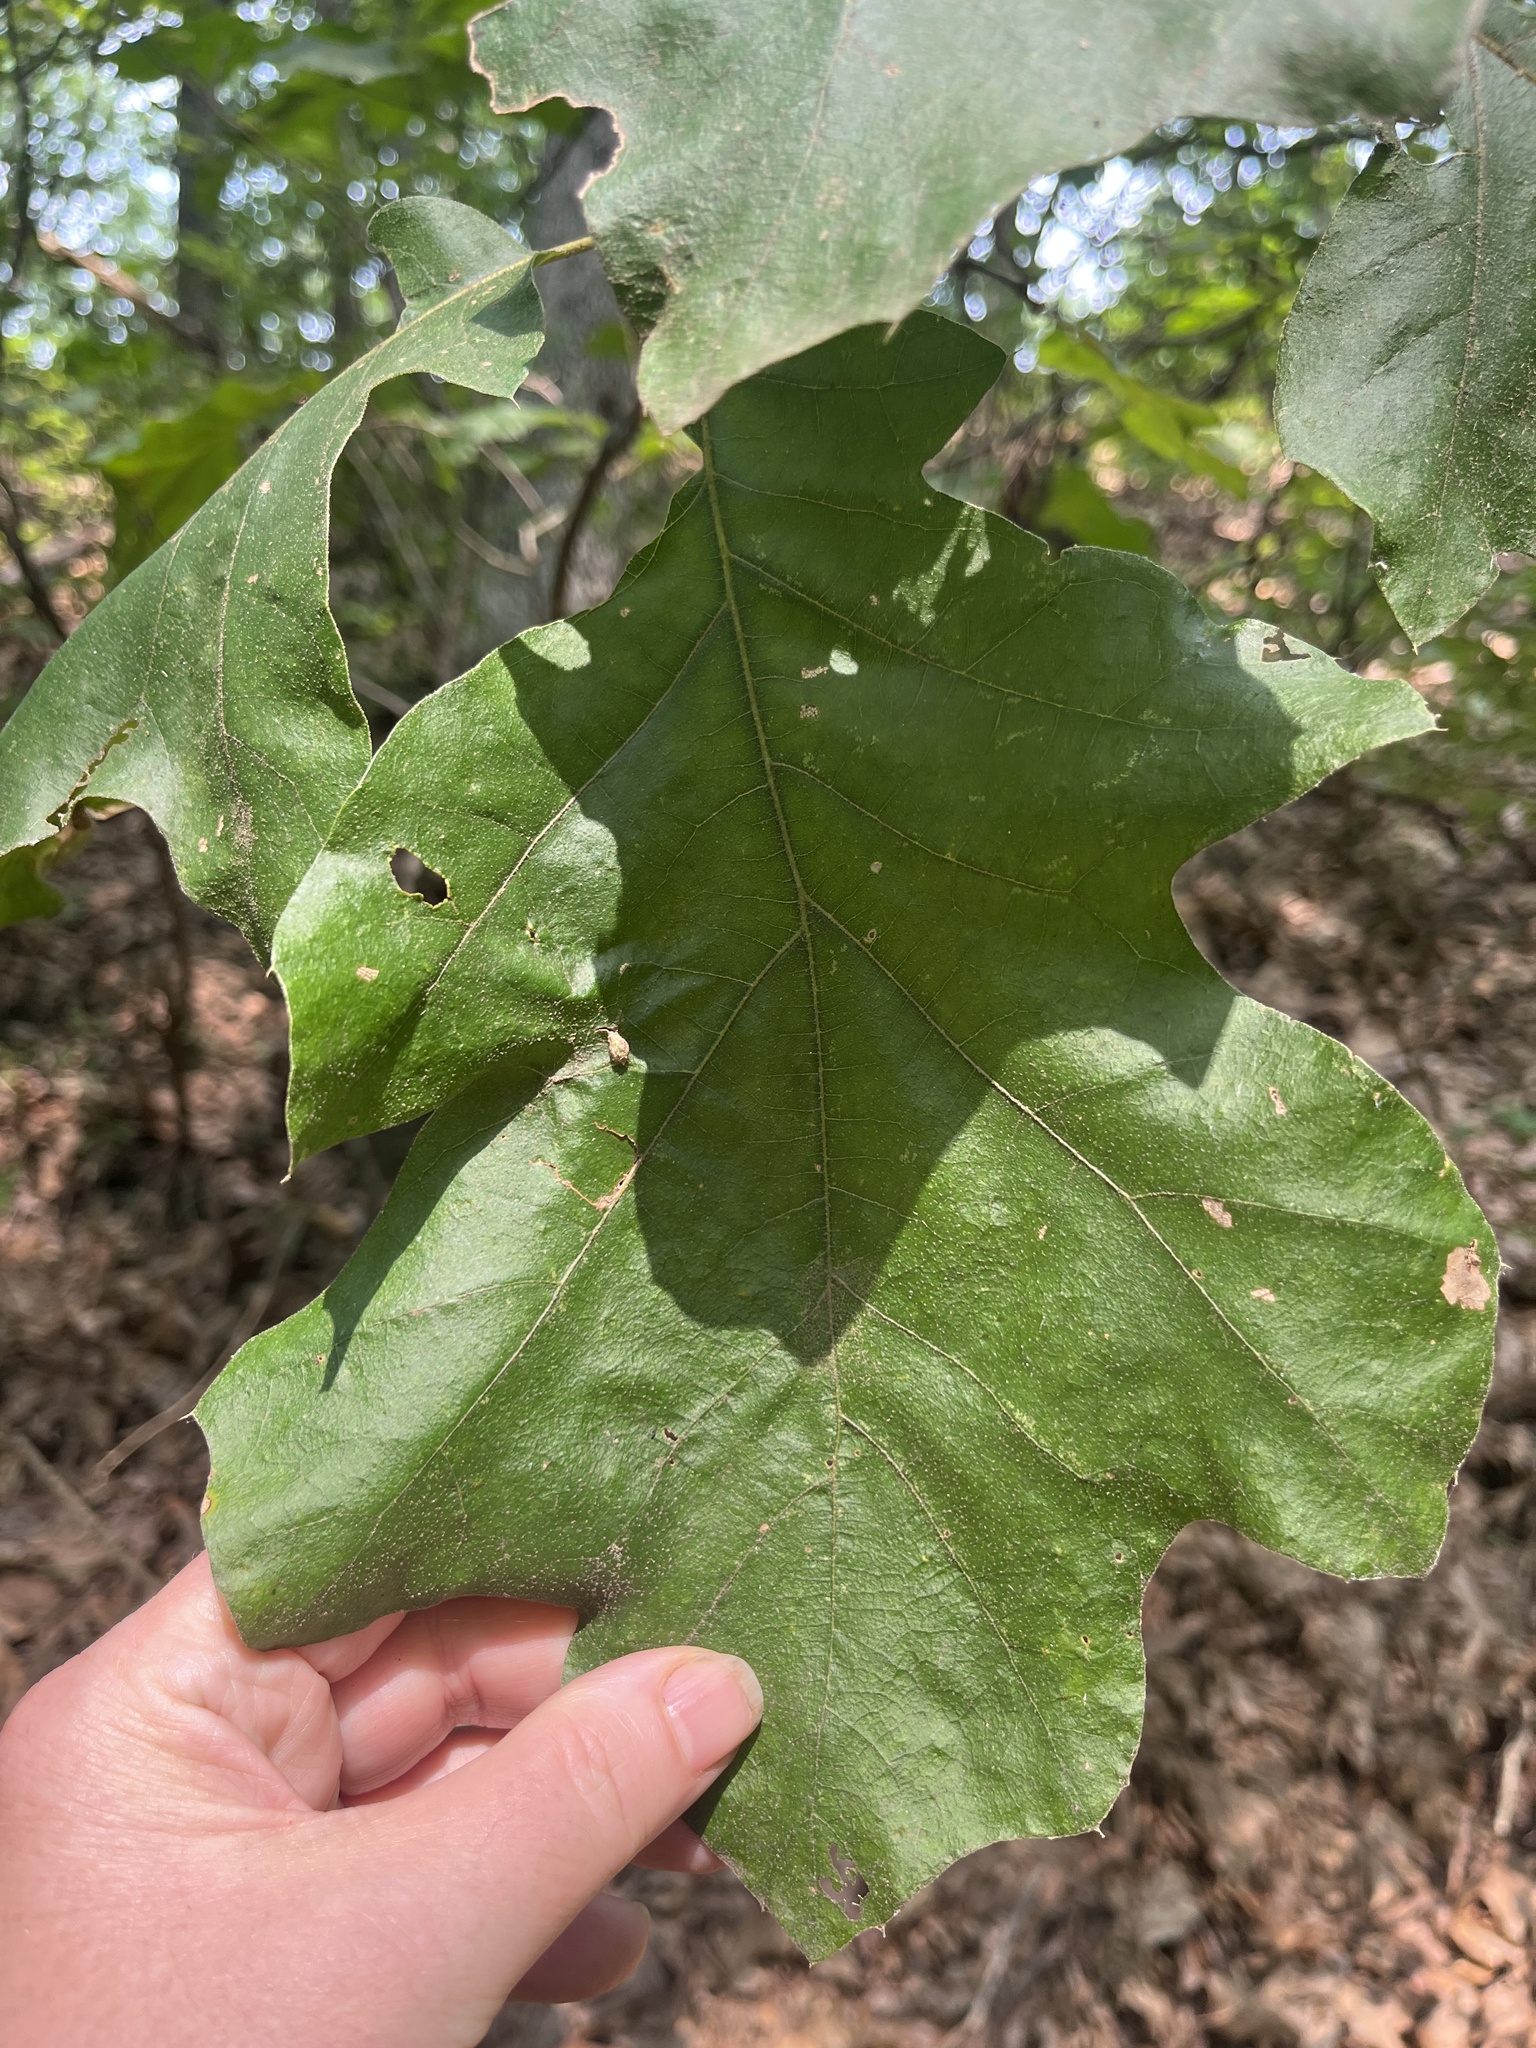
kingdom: Plantae
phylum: Tracheophyta
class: Magnoliopsida
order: Fagales
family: Fagaceae
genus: Quercus
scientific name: Quercus velutina
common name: Black oak
